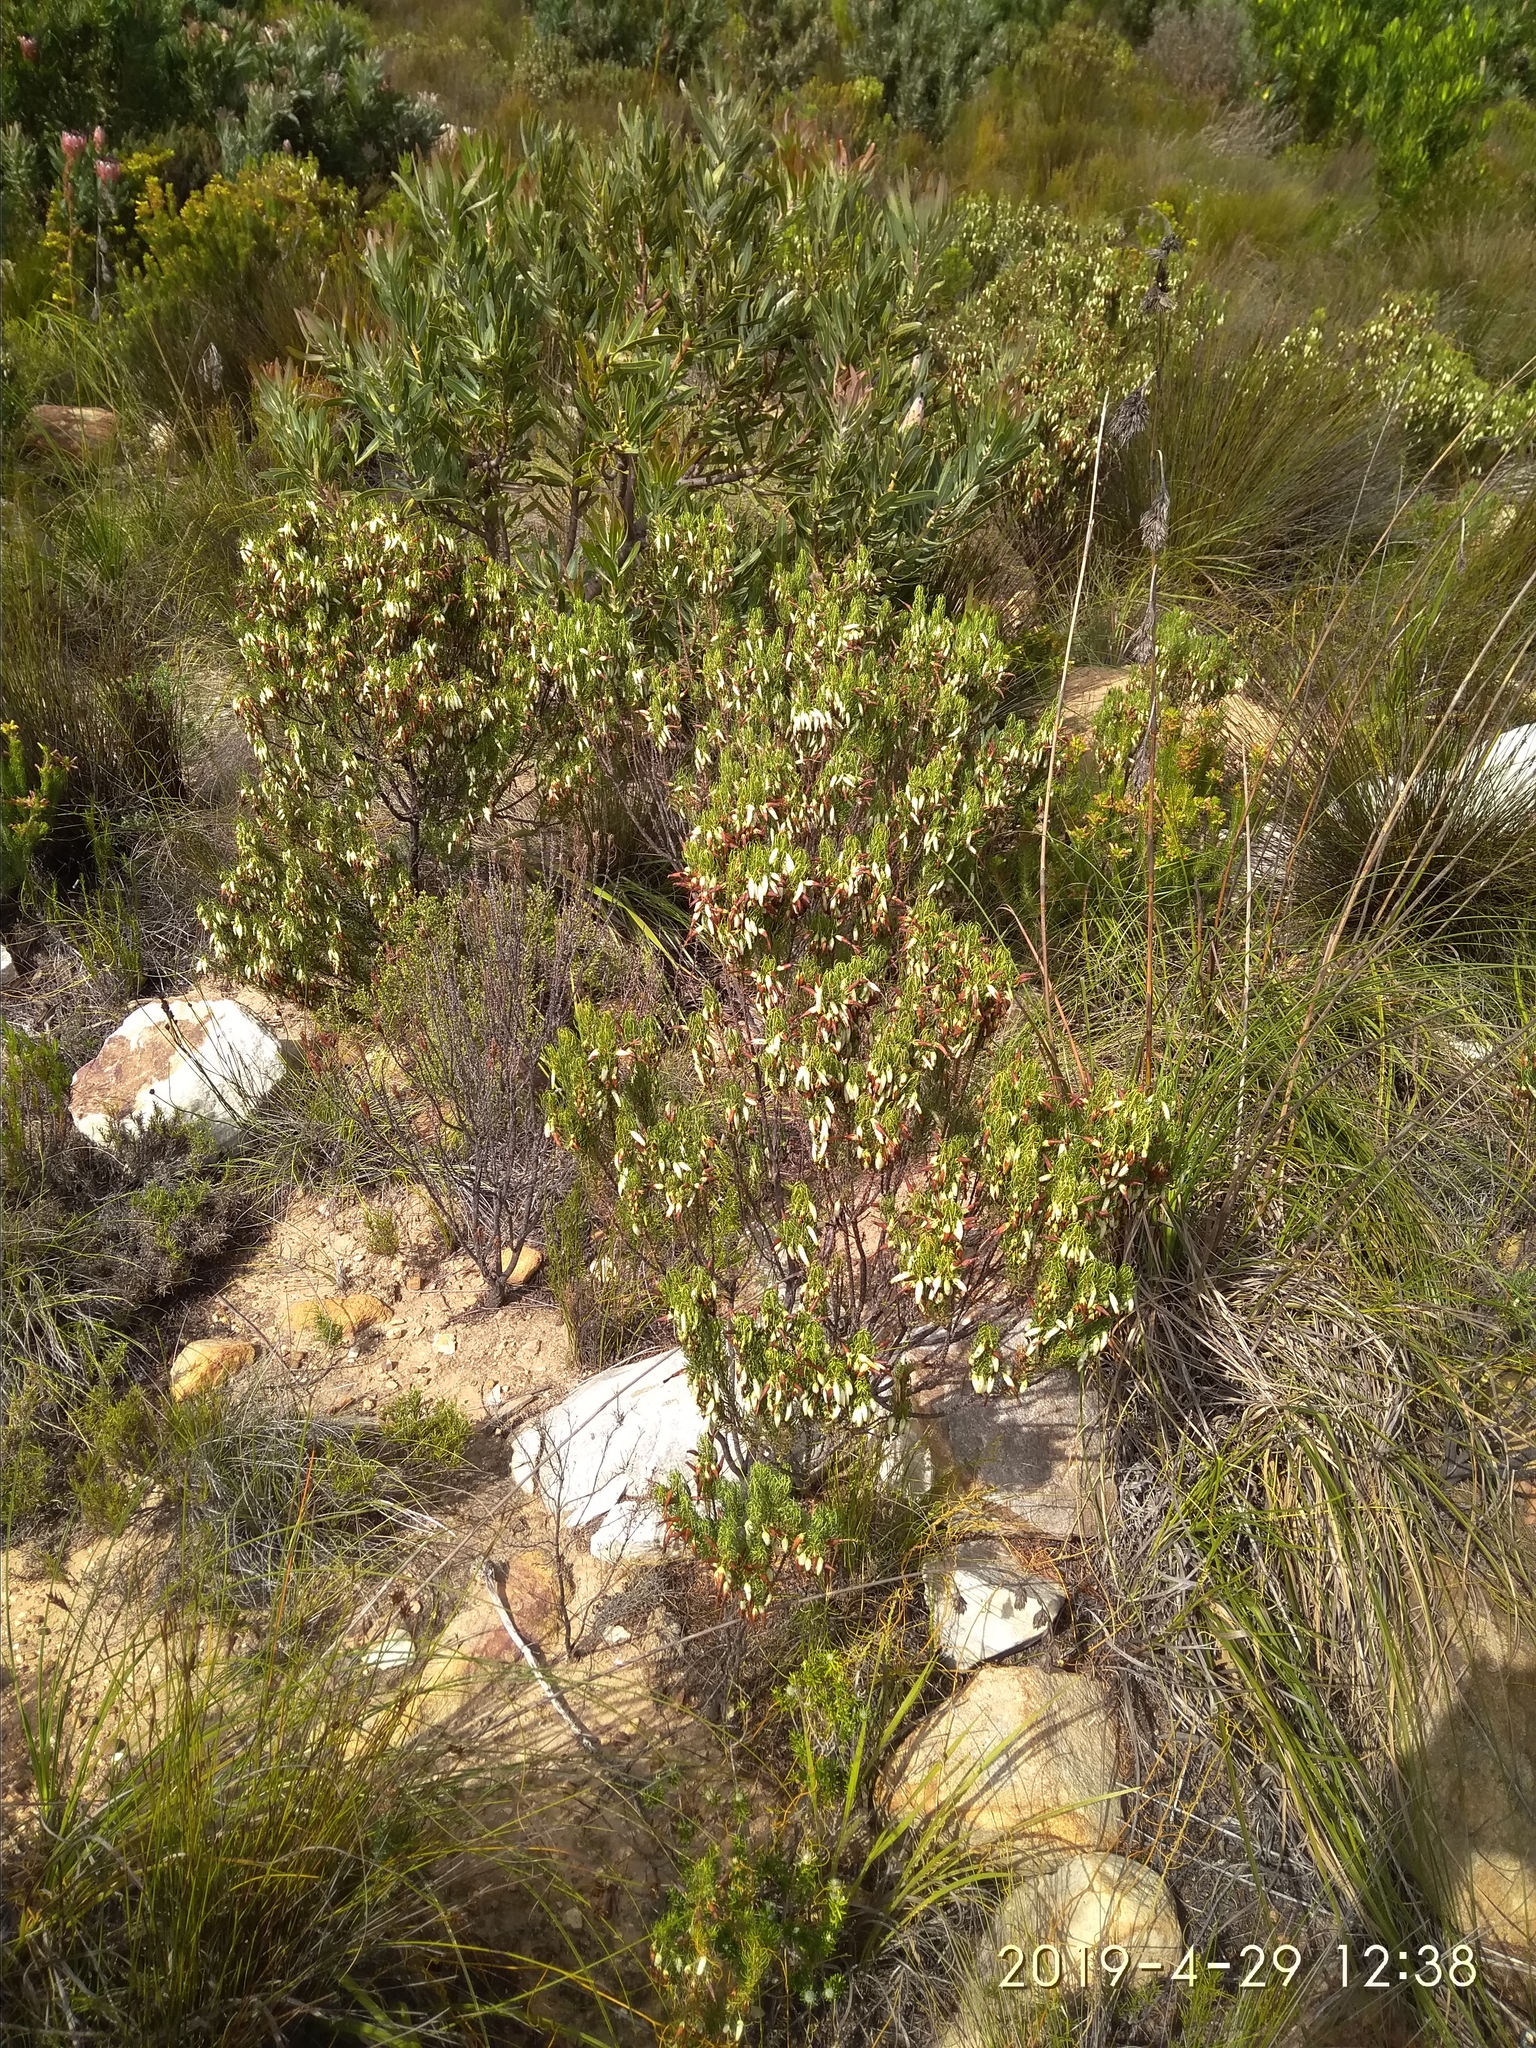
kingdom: Plantae
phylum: Tracheophyta
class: Magnoliopsida
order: Ericales
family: Ericaceae
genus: Erica
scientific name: Erica plukenetii
